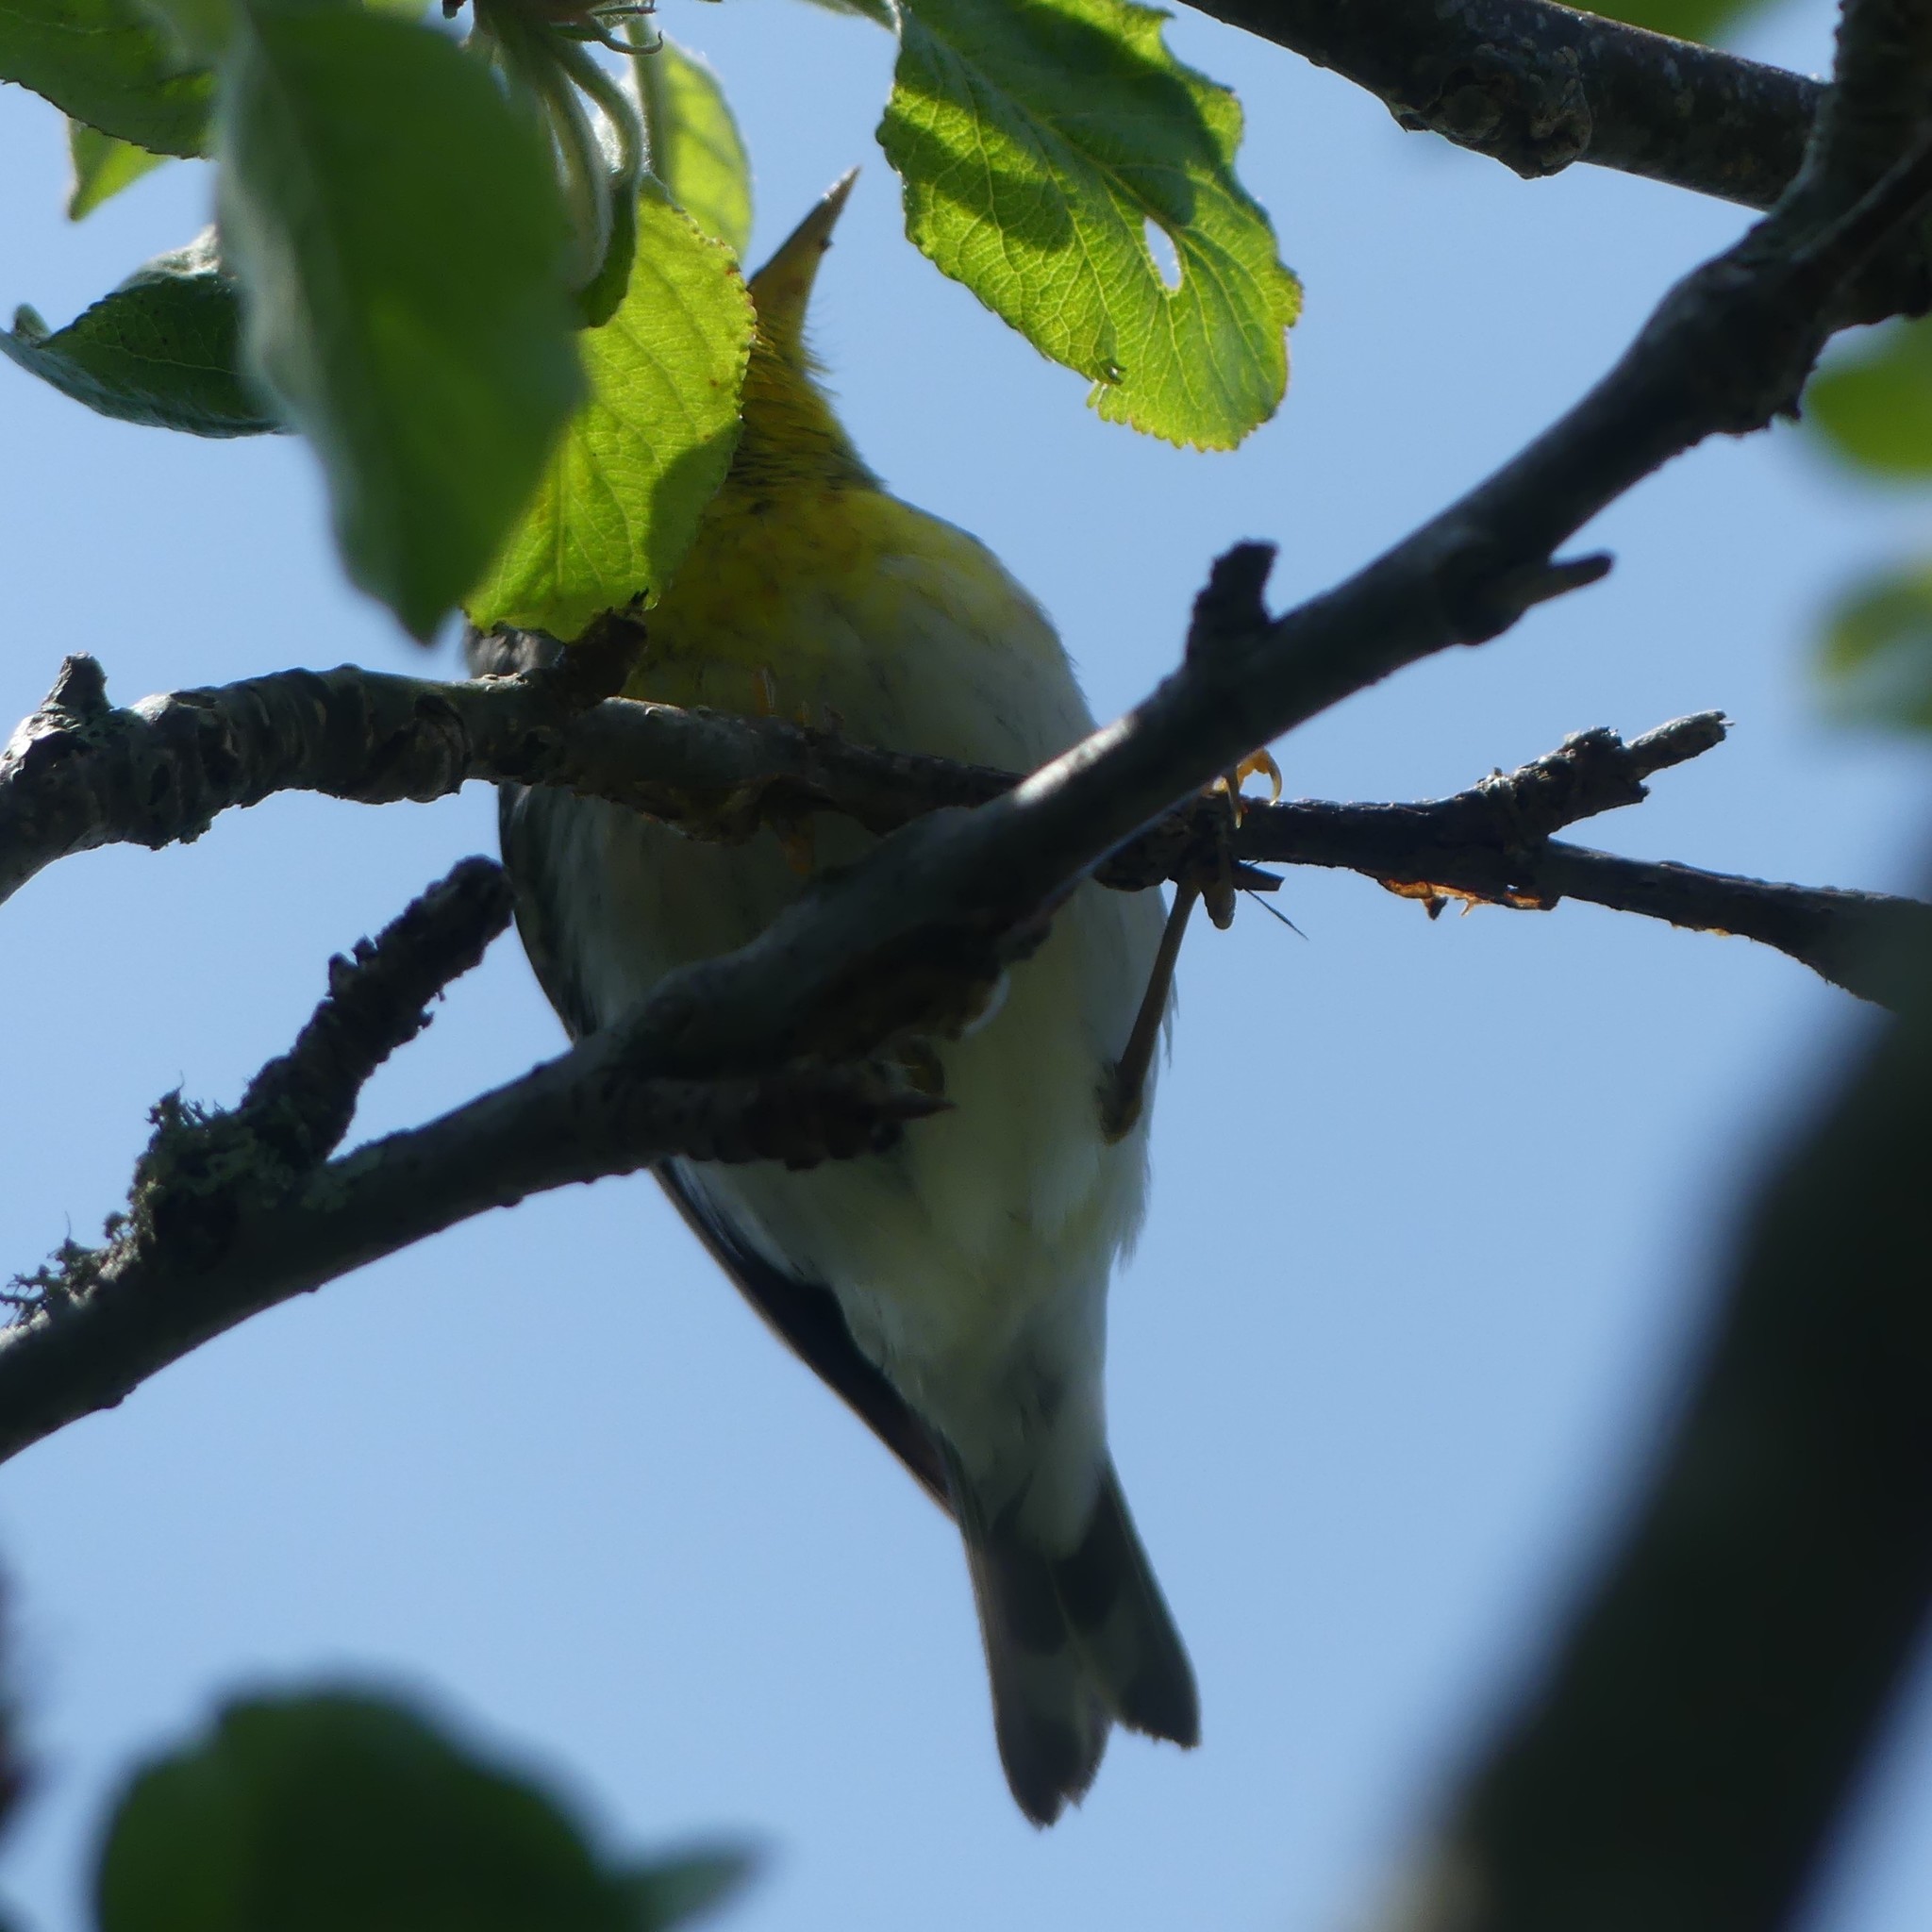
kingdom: Animalia
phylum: Chordata
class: Aves
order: Passeriformes
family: Parulidae
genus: Setophaga
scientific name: Setophaga americana
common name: Northern parula
